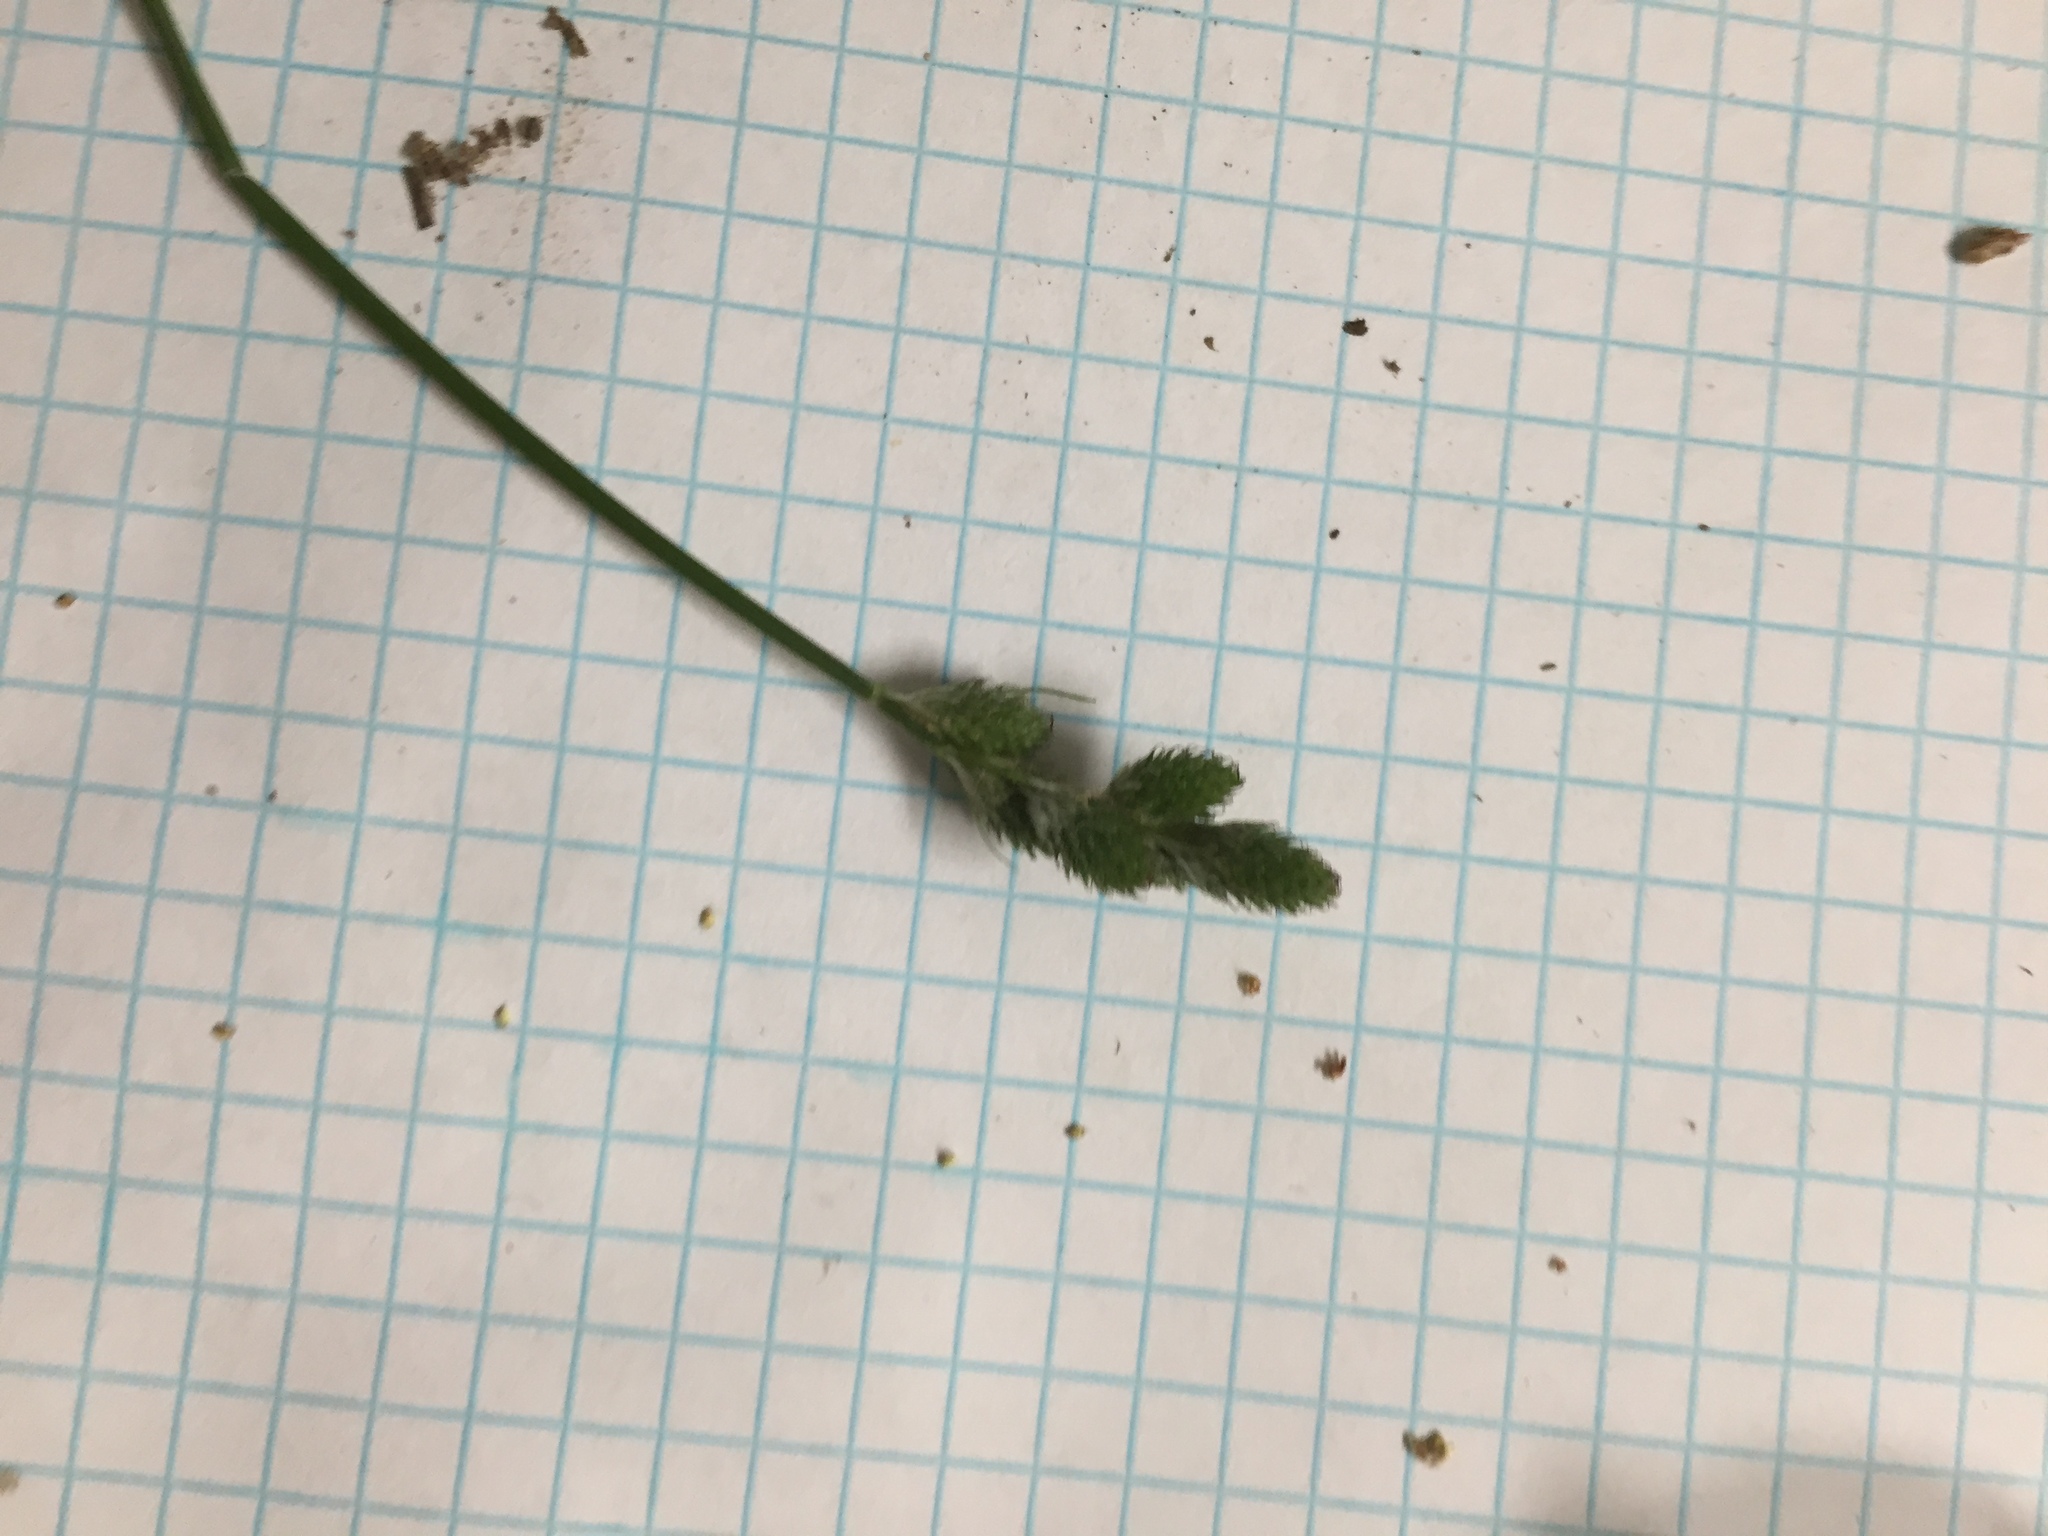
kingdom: Plantae
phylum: Tracheophyta
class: Liliopsida
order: Poales
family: Cyperaceae
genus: Carex
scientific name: Carex longii
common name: Long's sedge
